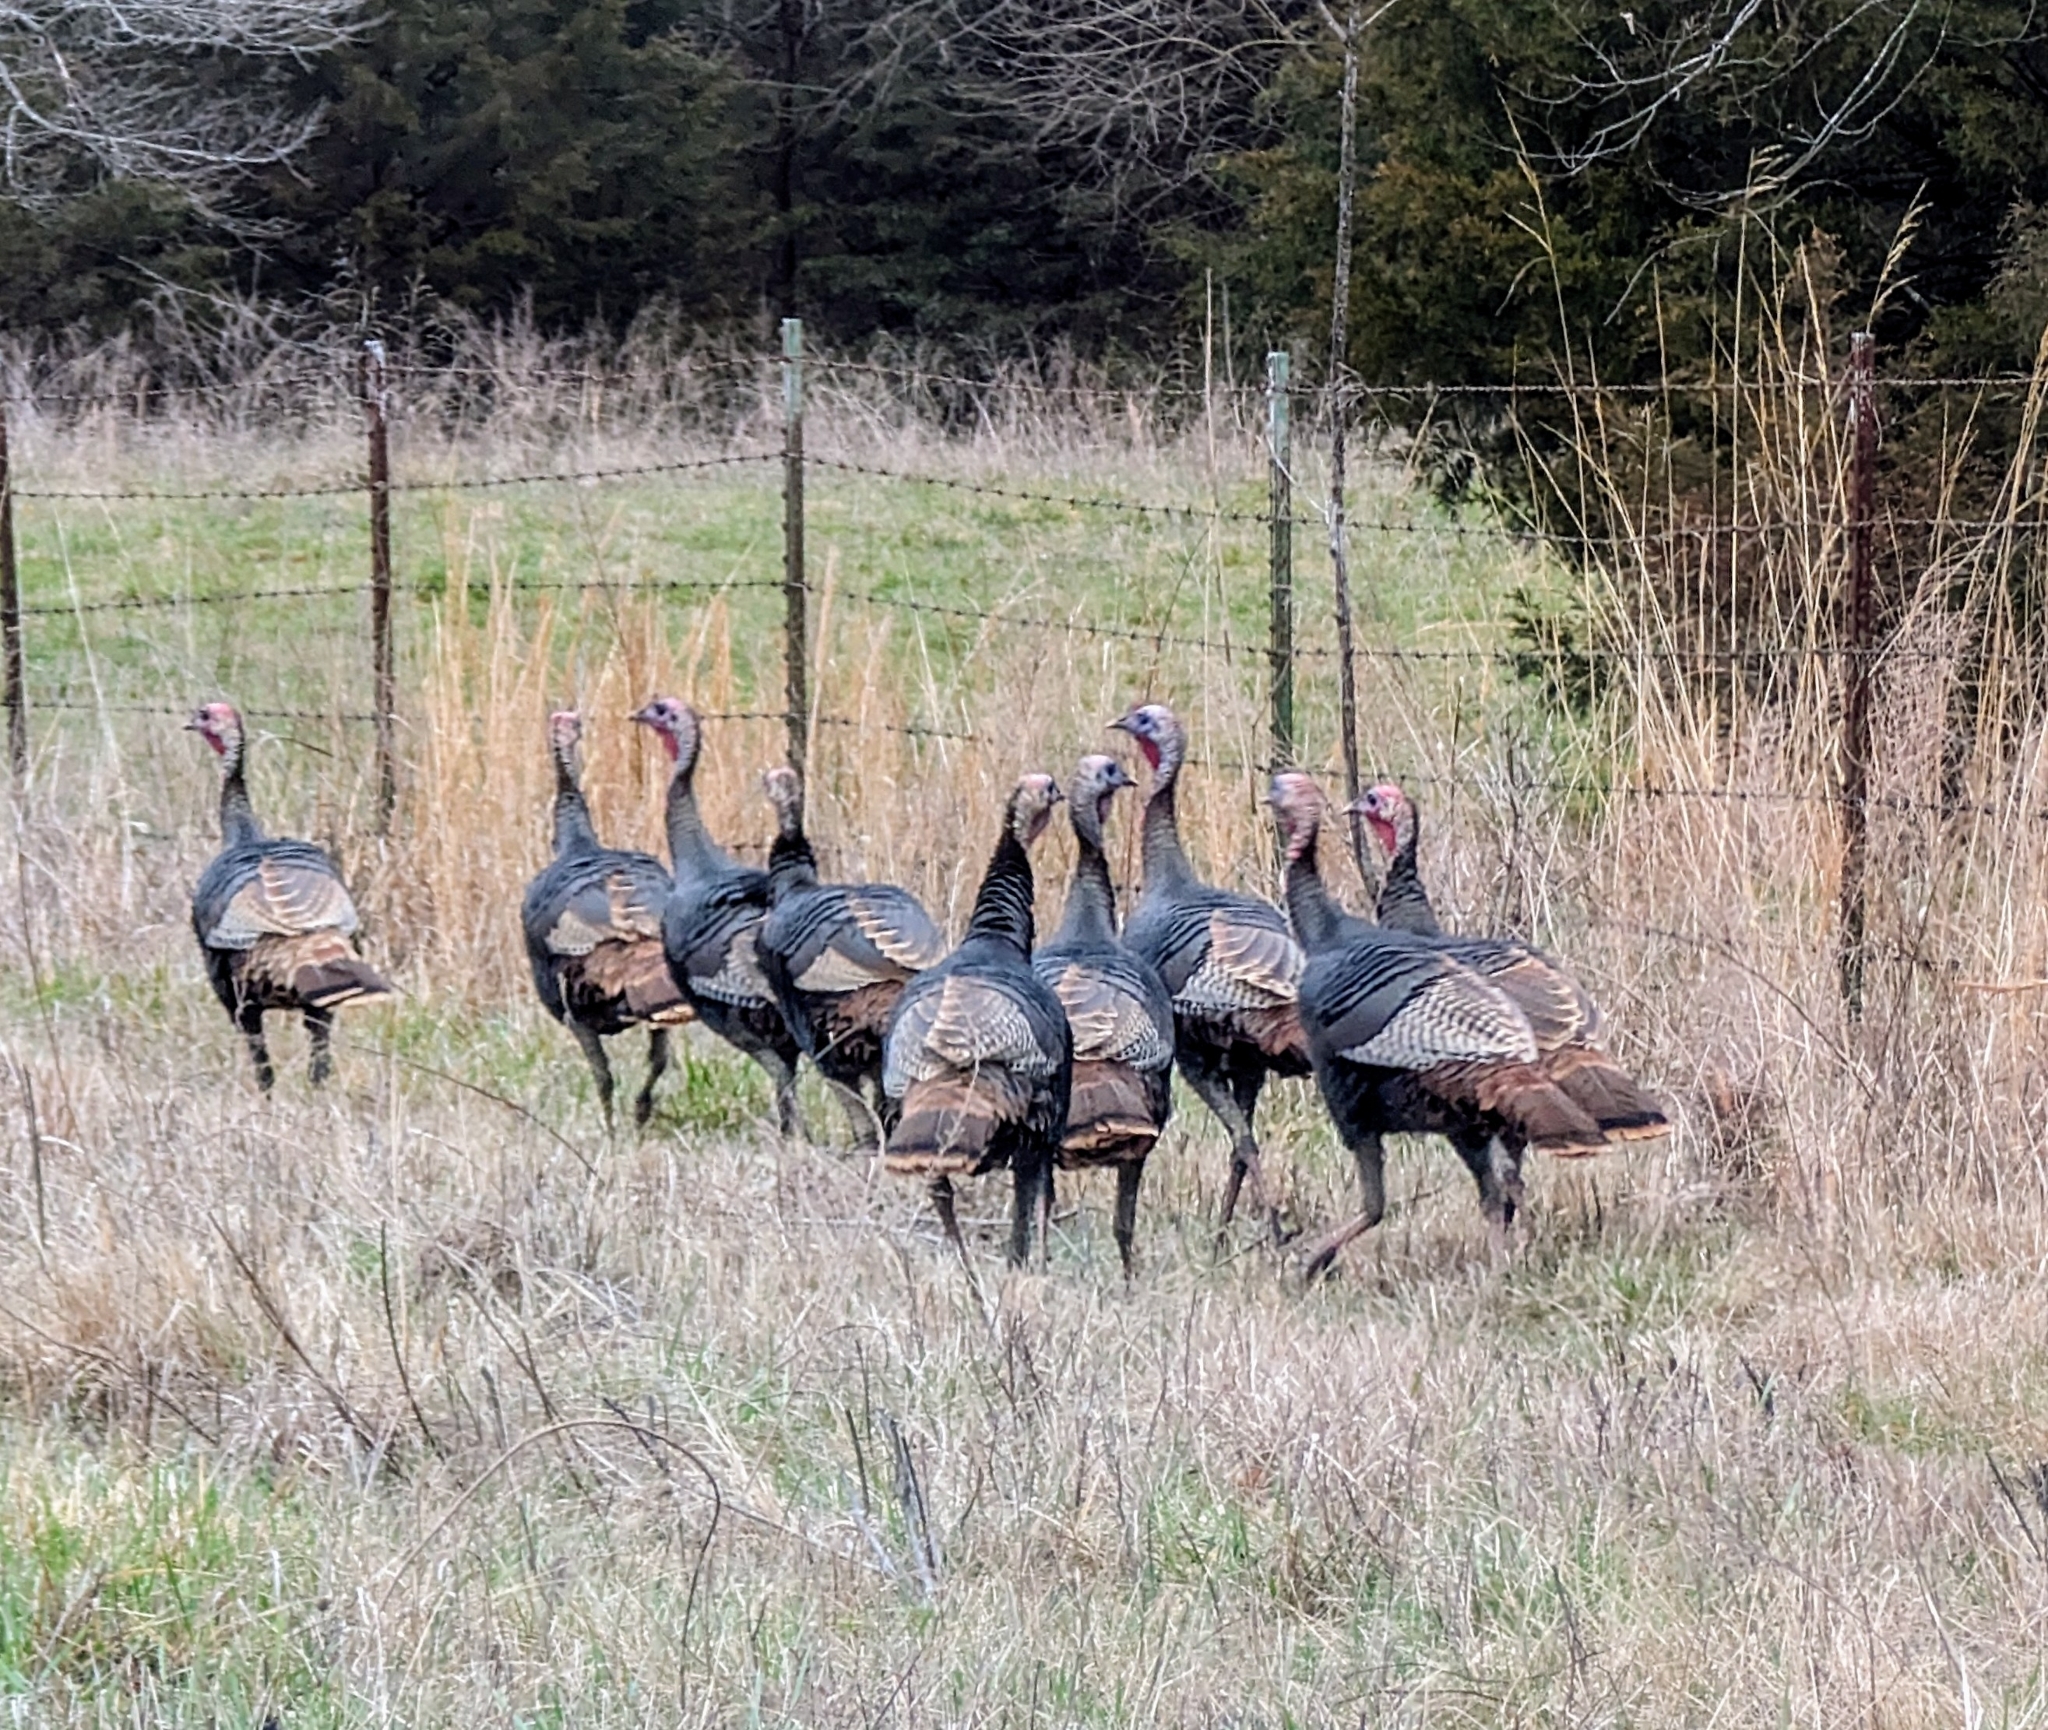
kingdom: Animalia
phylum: Chordata
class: Aves
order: Galliformes
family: Phasianidae
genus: Meleagris
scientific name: Meleagris gallopavo
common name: Wild turkey
